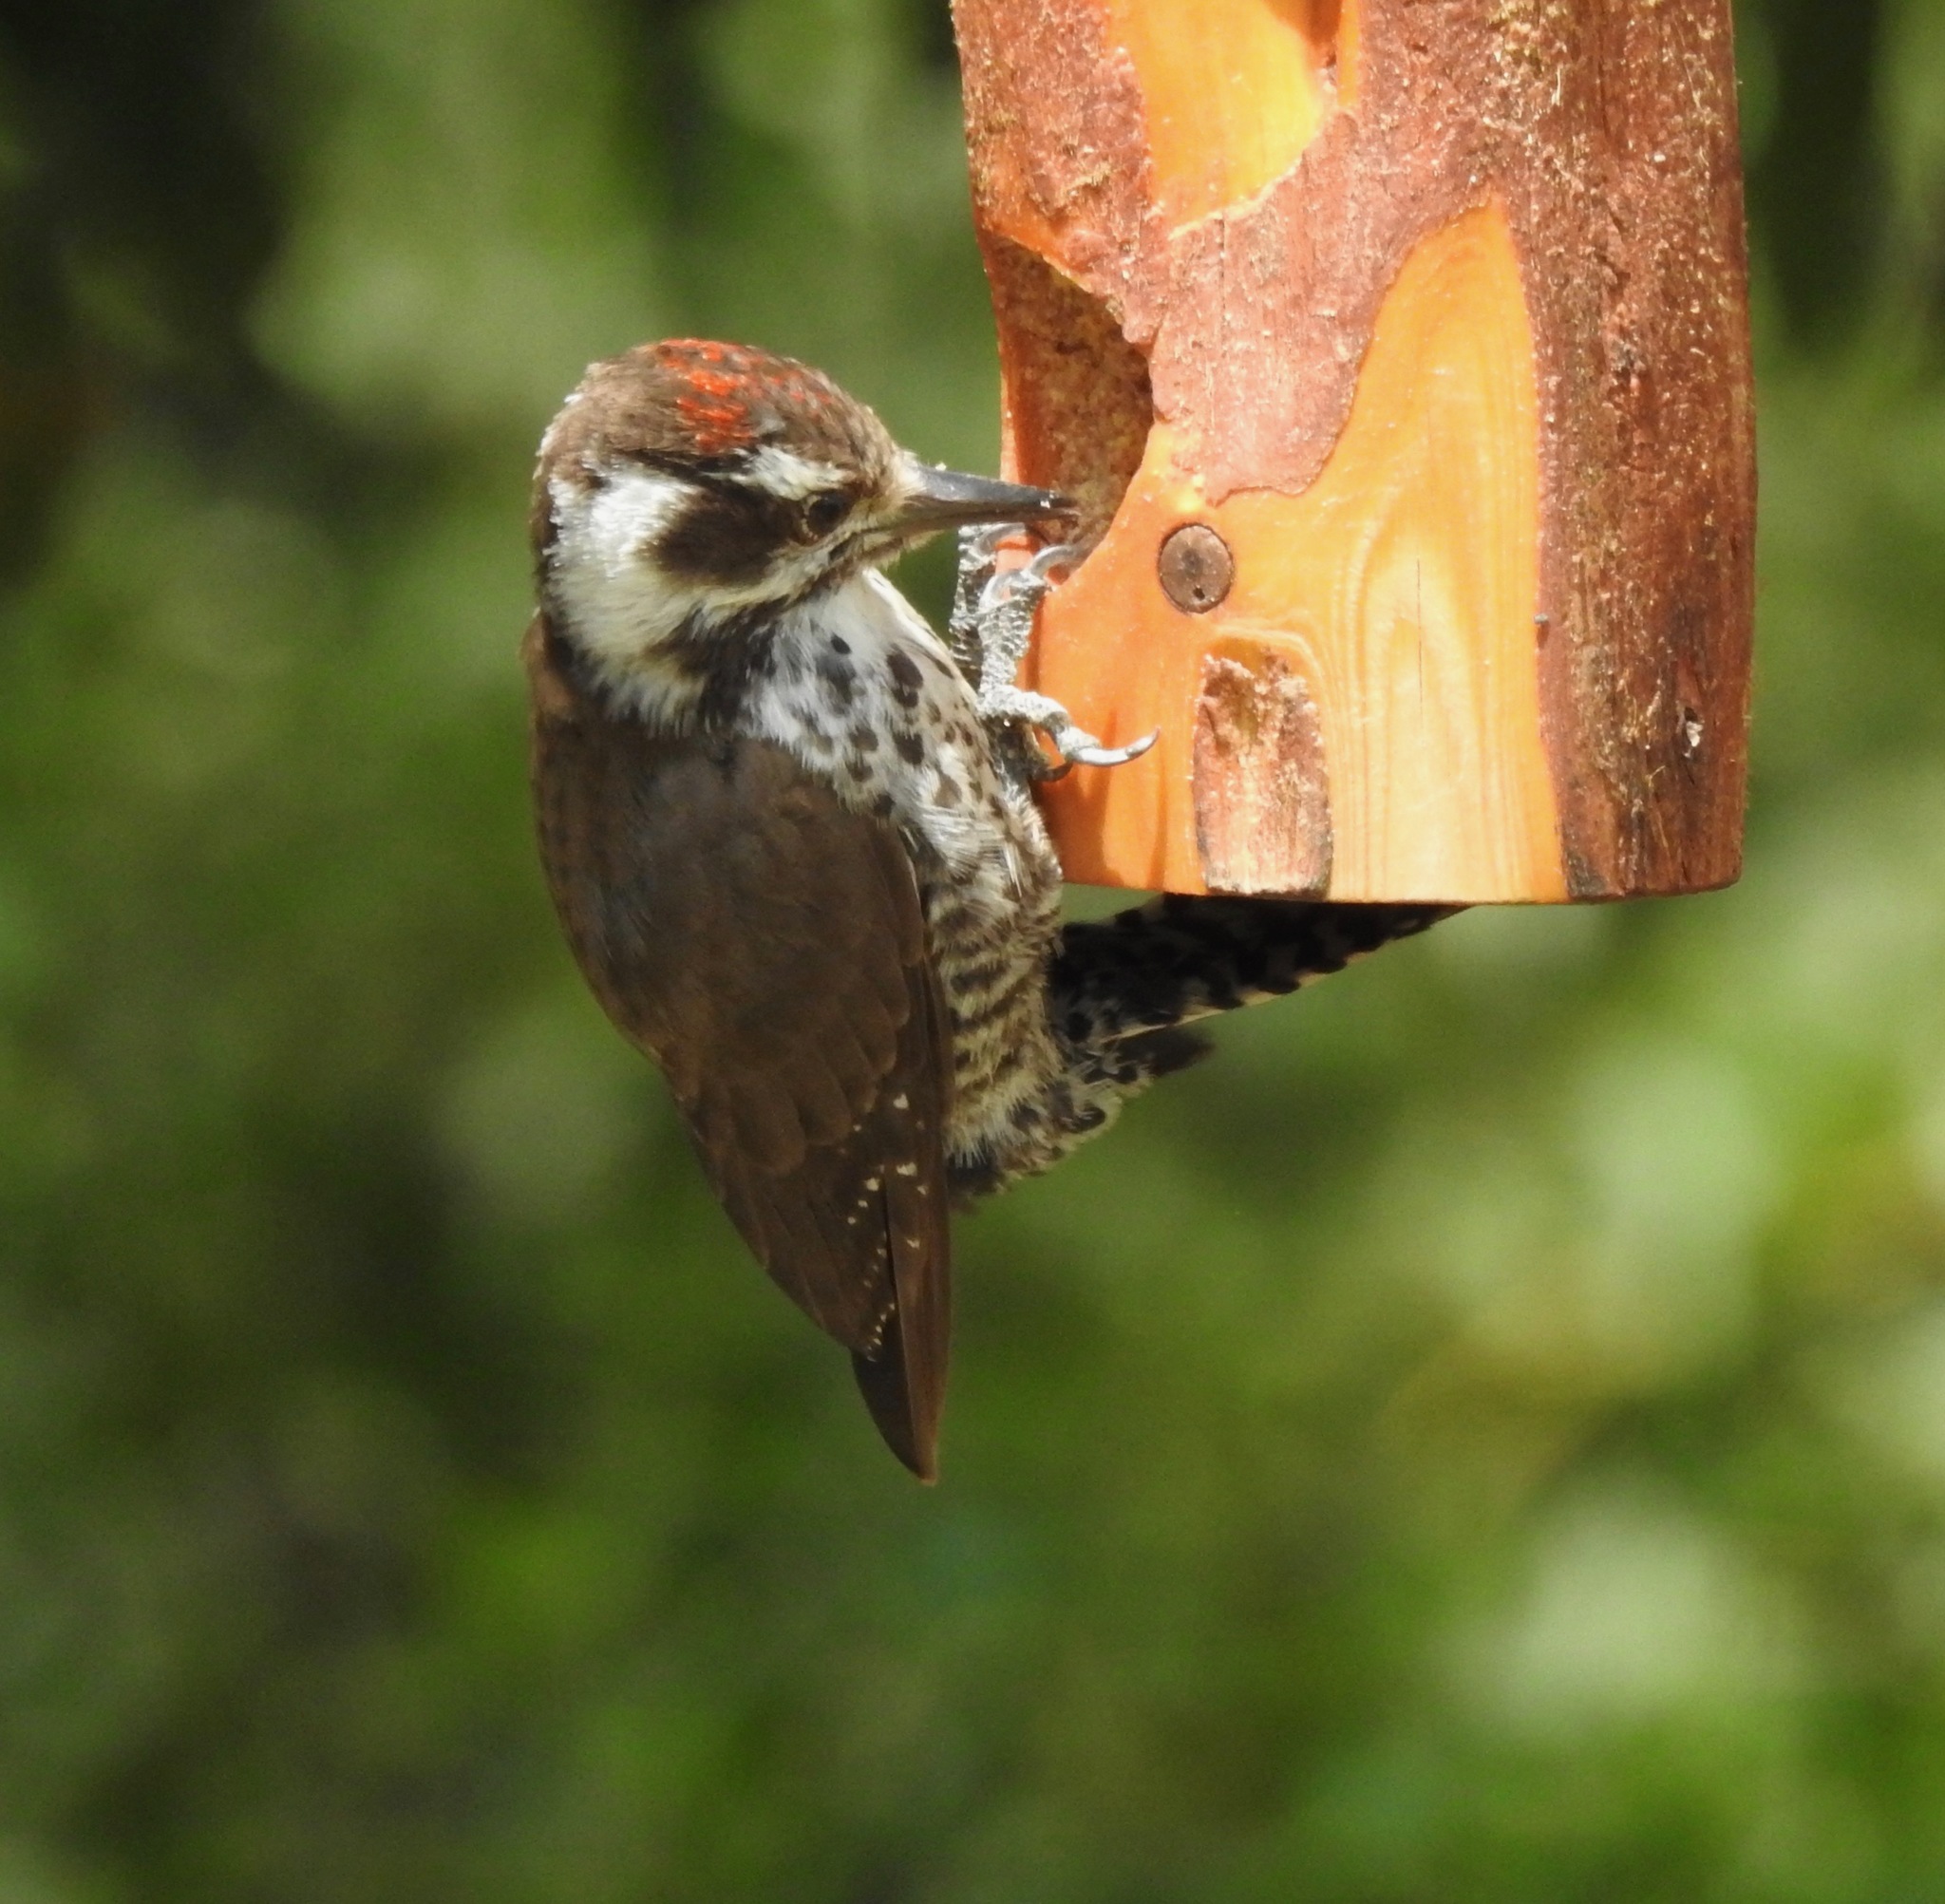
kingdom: Animalia
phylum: Chordata
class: Aves
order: Piciformes
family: Picidae
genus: Leuconotopicus
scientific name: Leuconotopicus arizonae
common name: Arizona woodpecker
